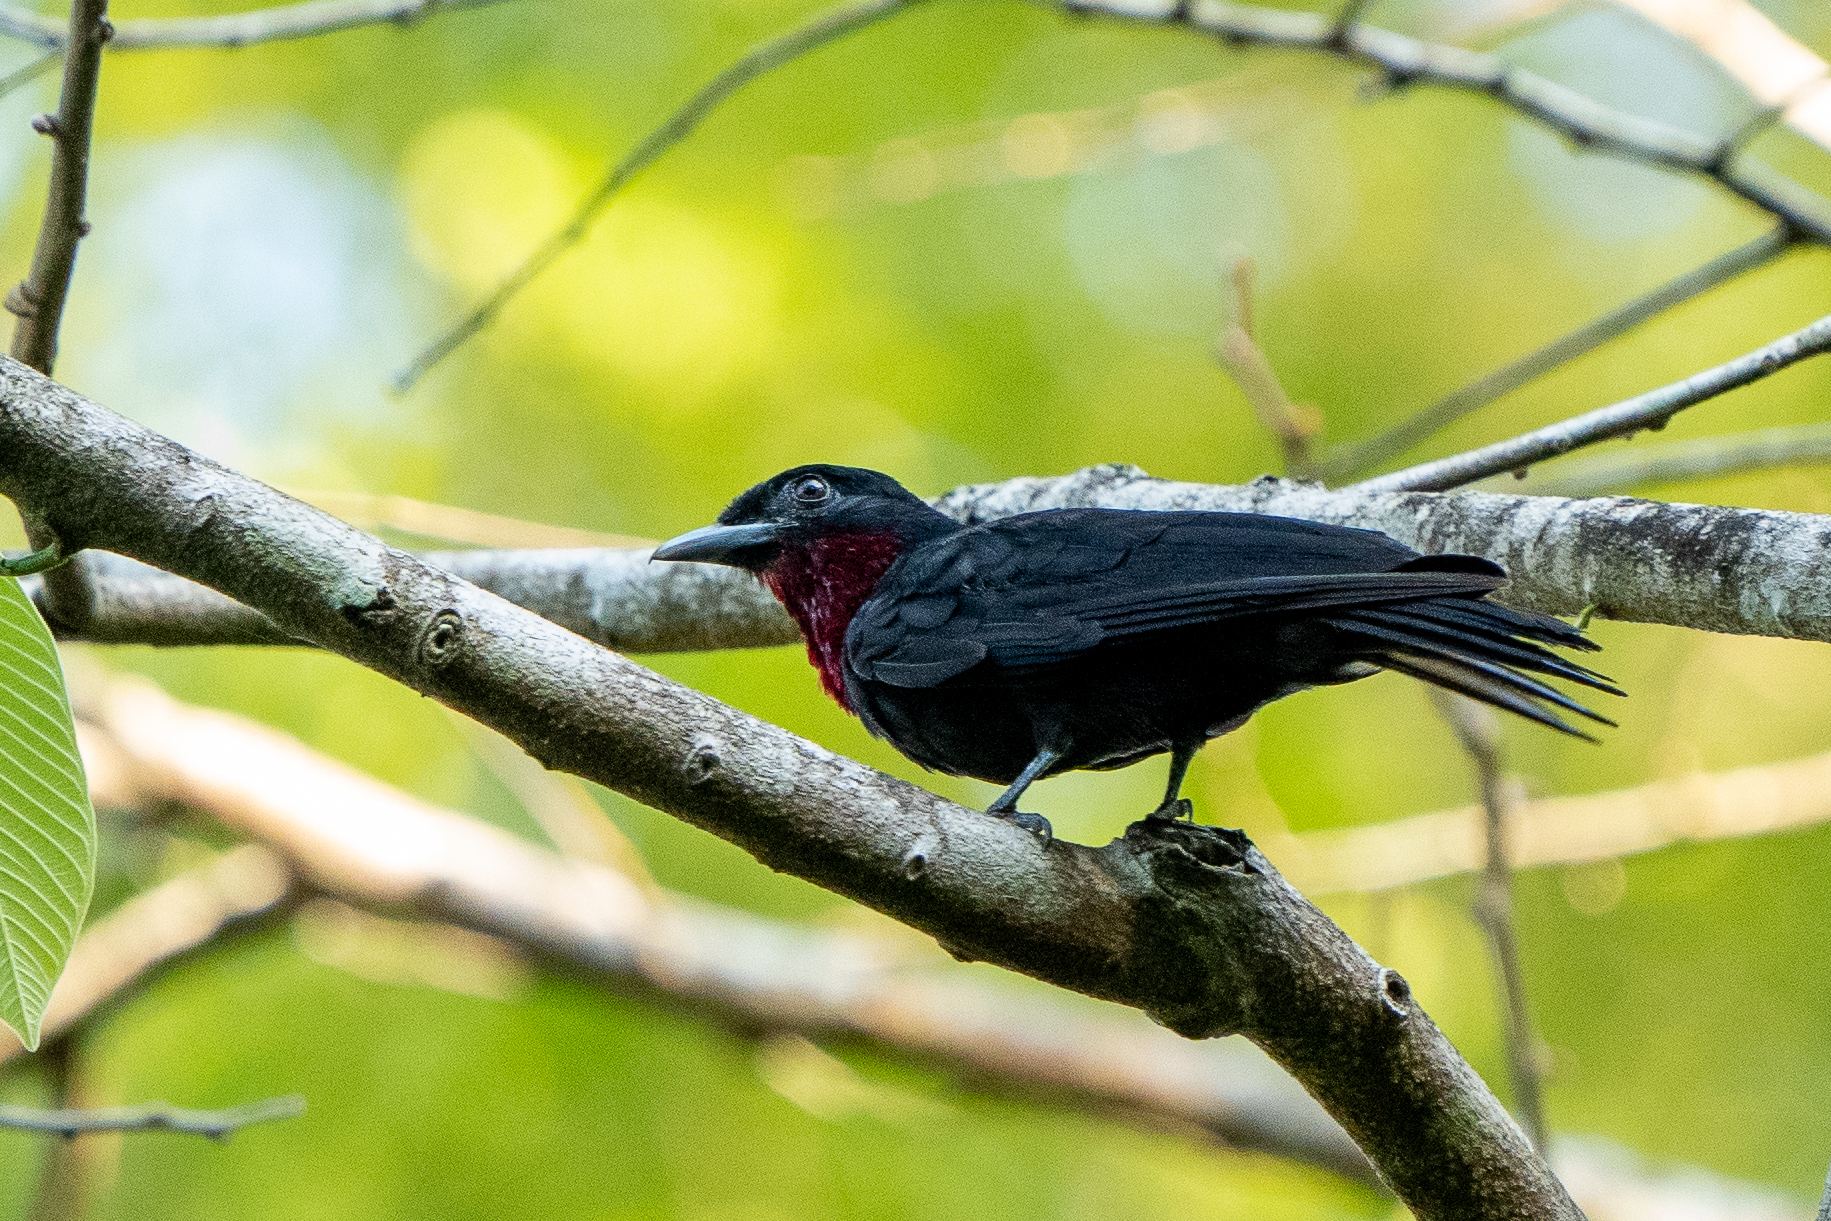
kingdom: Animalia
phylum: Chordata
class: Aves
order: Passeriformes
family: Cotingidae
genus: Querula
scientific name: Querula purpurata
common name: Purple-throated fruitcrow
